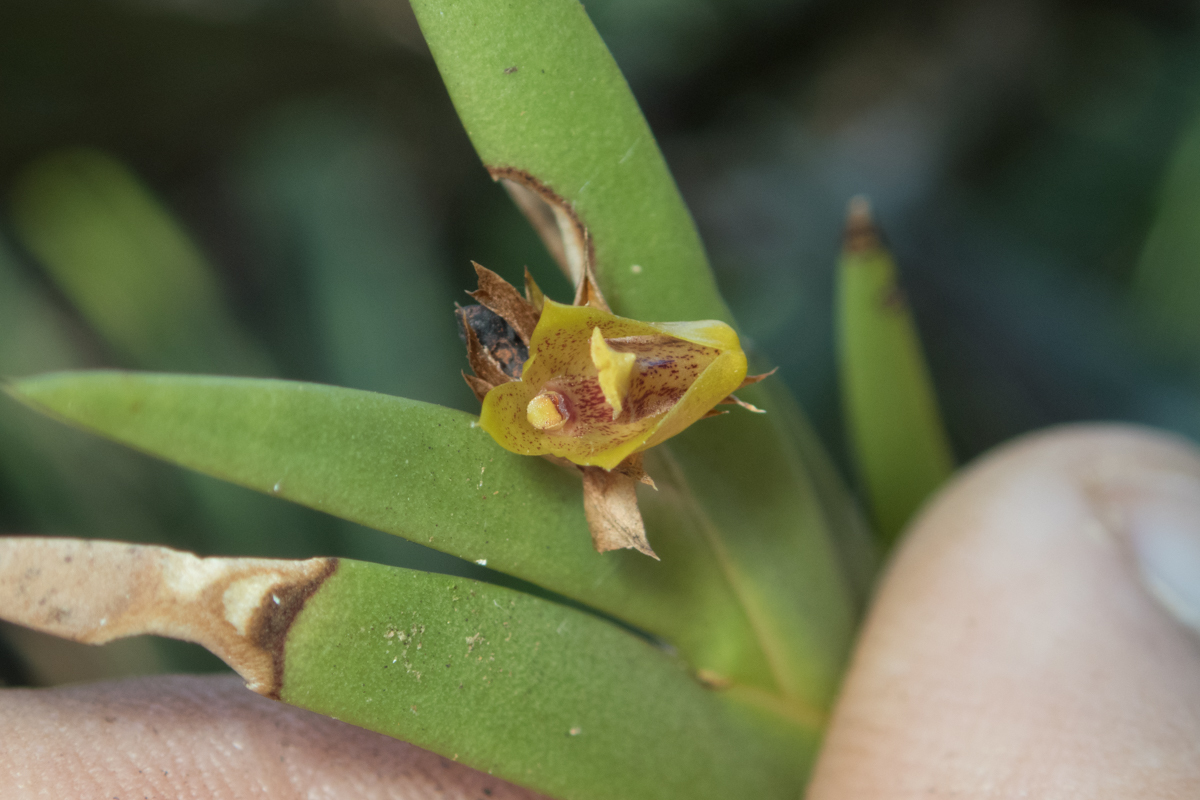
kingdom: Plantae
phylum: Tracheophyta
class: Liliopsida
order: Asparagales
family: Orchidaceae
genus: Oxystophyllum
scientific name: Oxystophyllum carnosum
